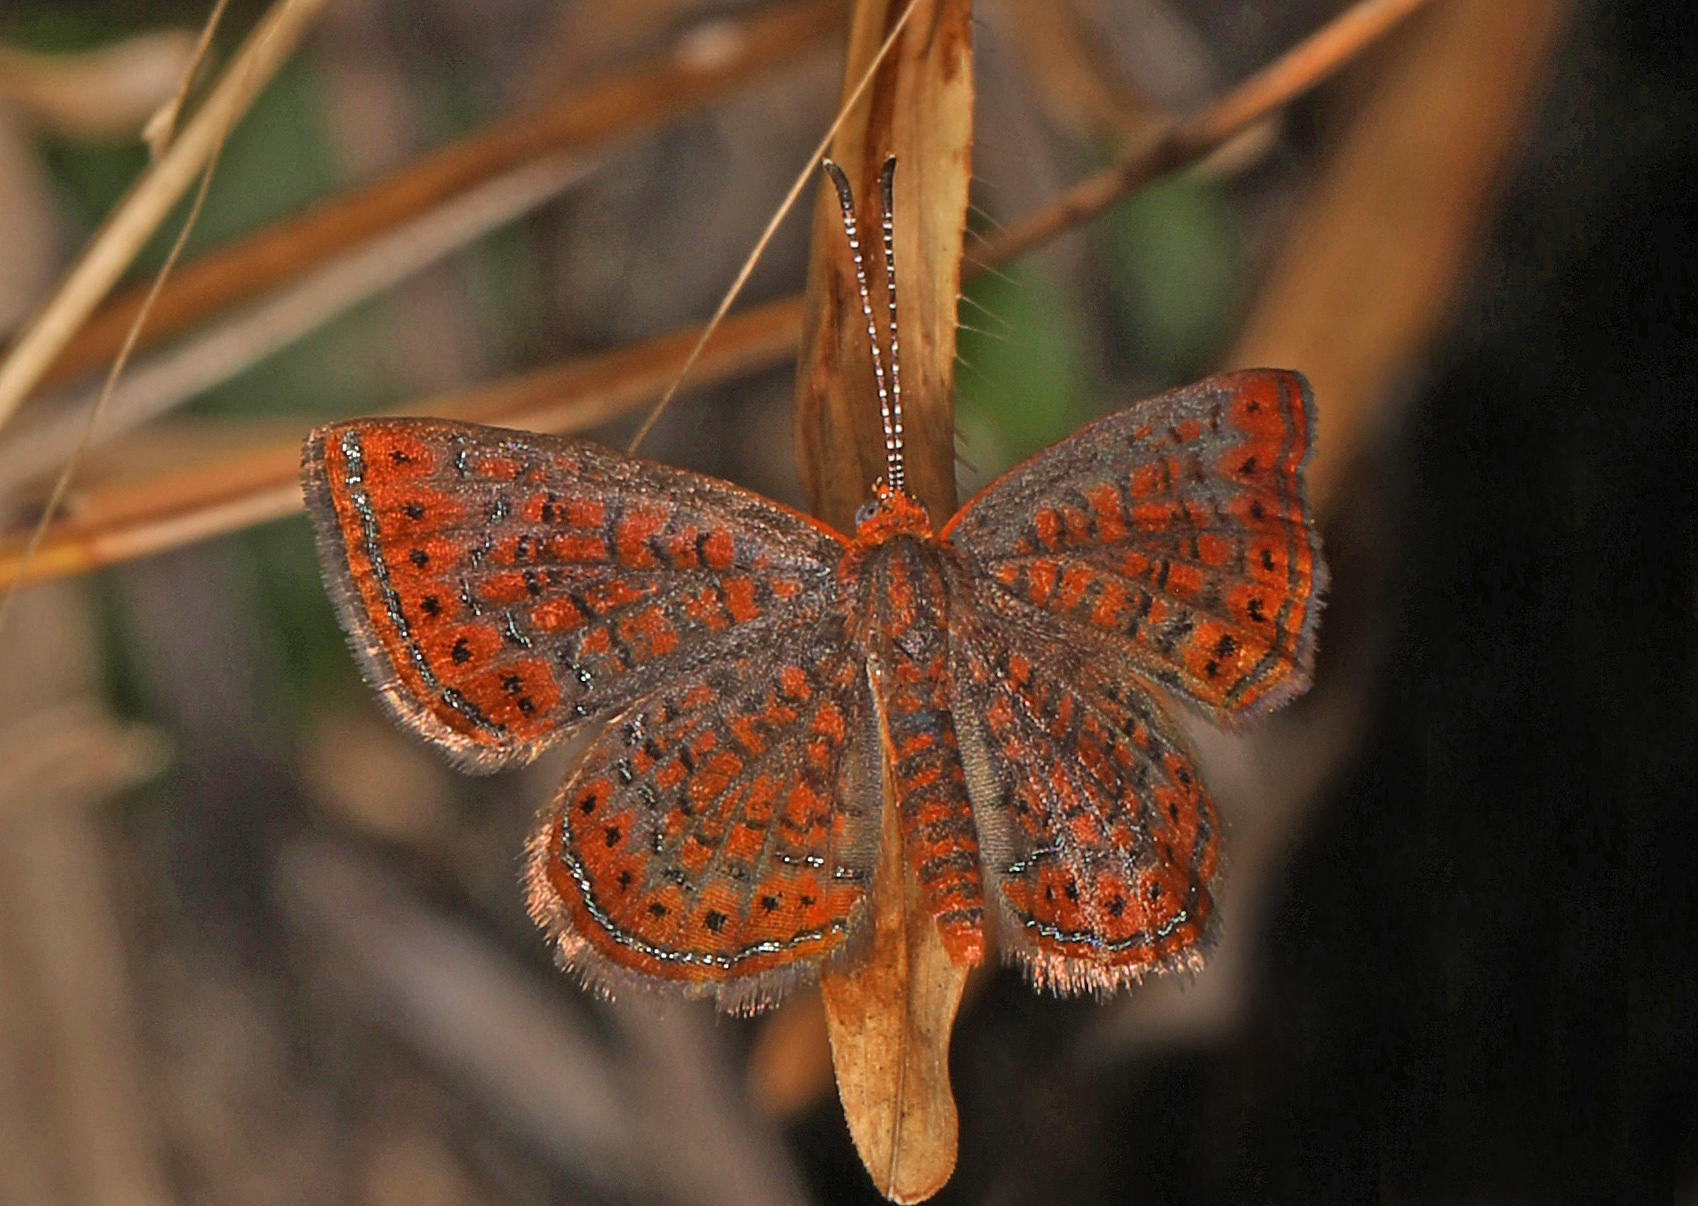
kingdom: Animalia
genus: Calephelis
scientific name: Calephelis virginiensis
